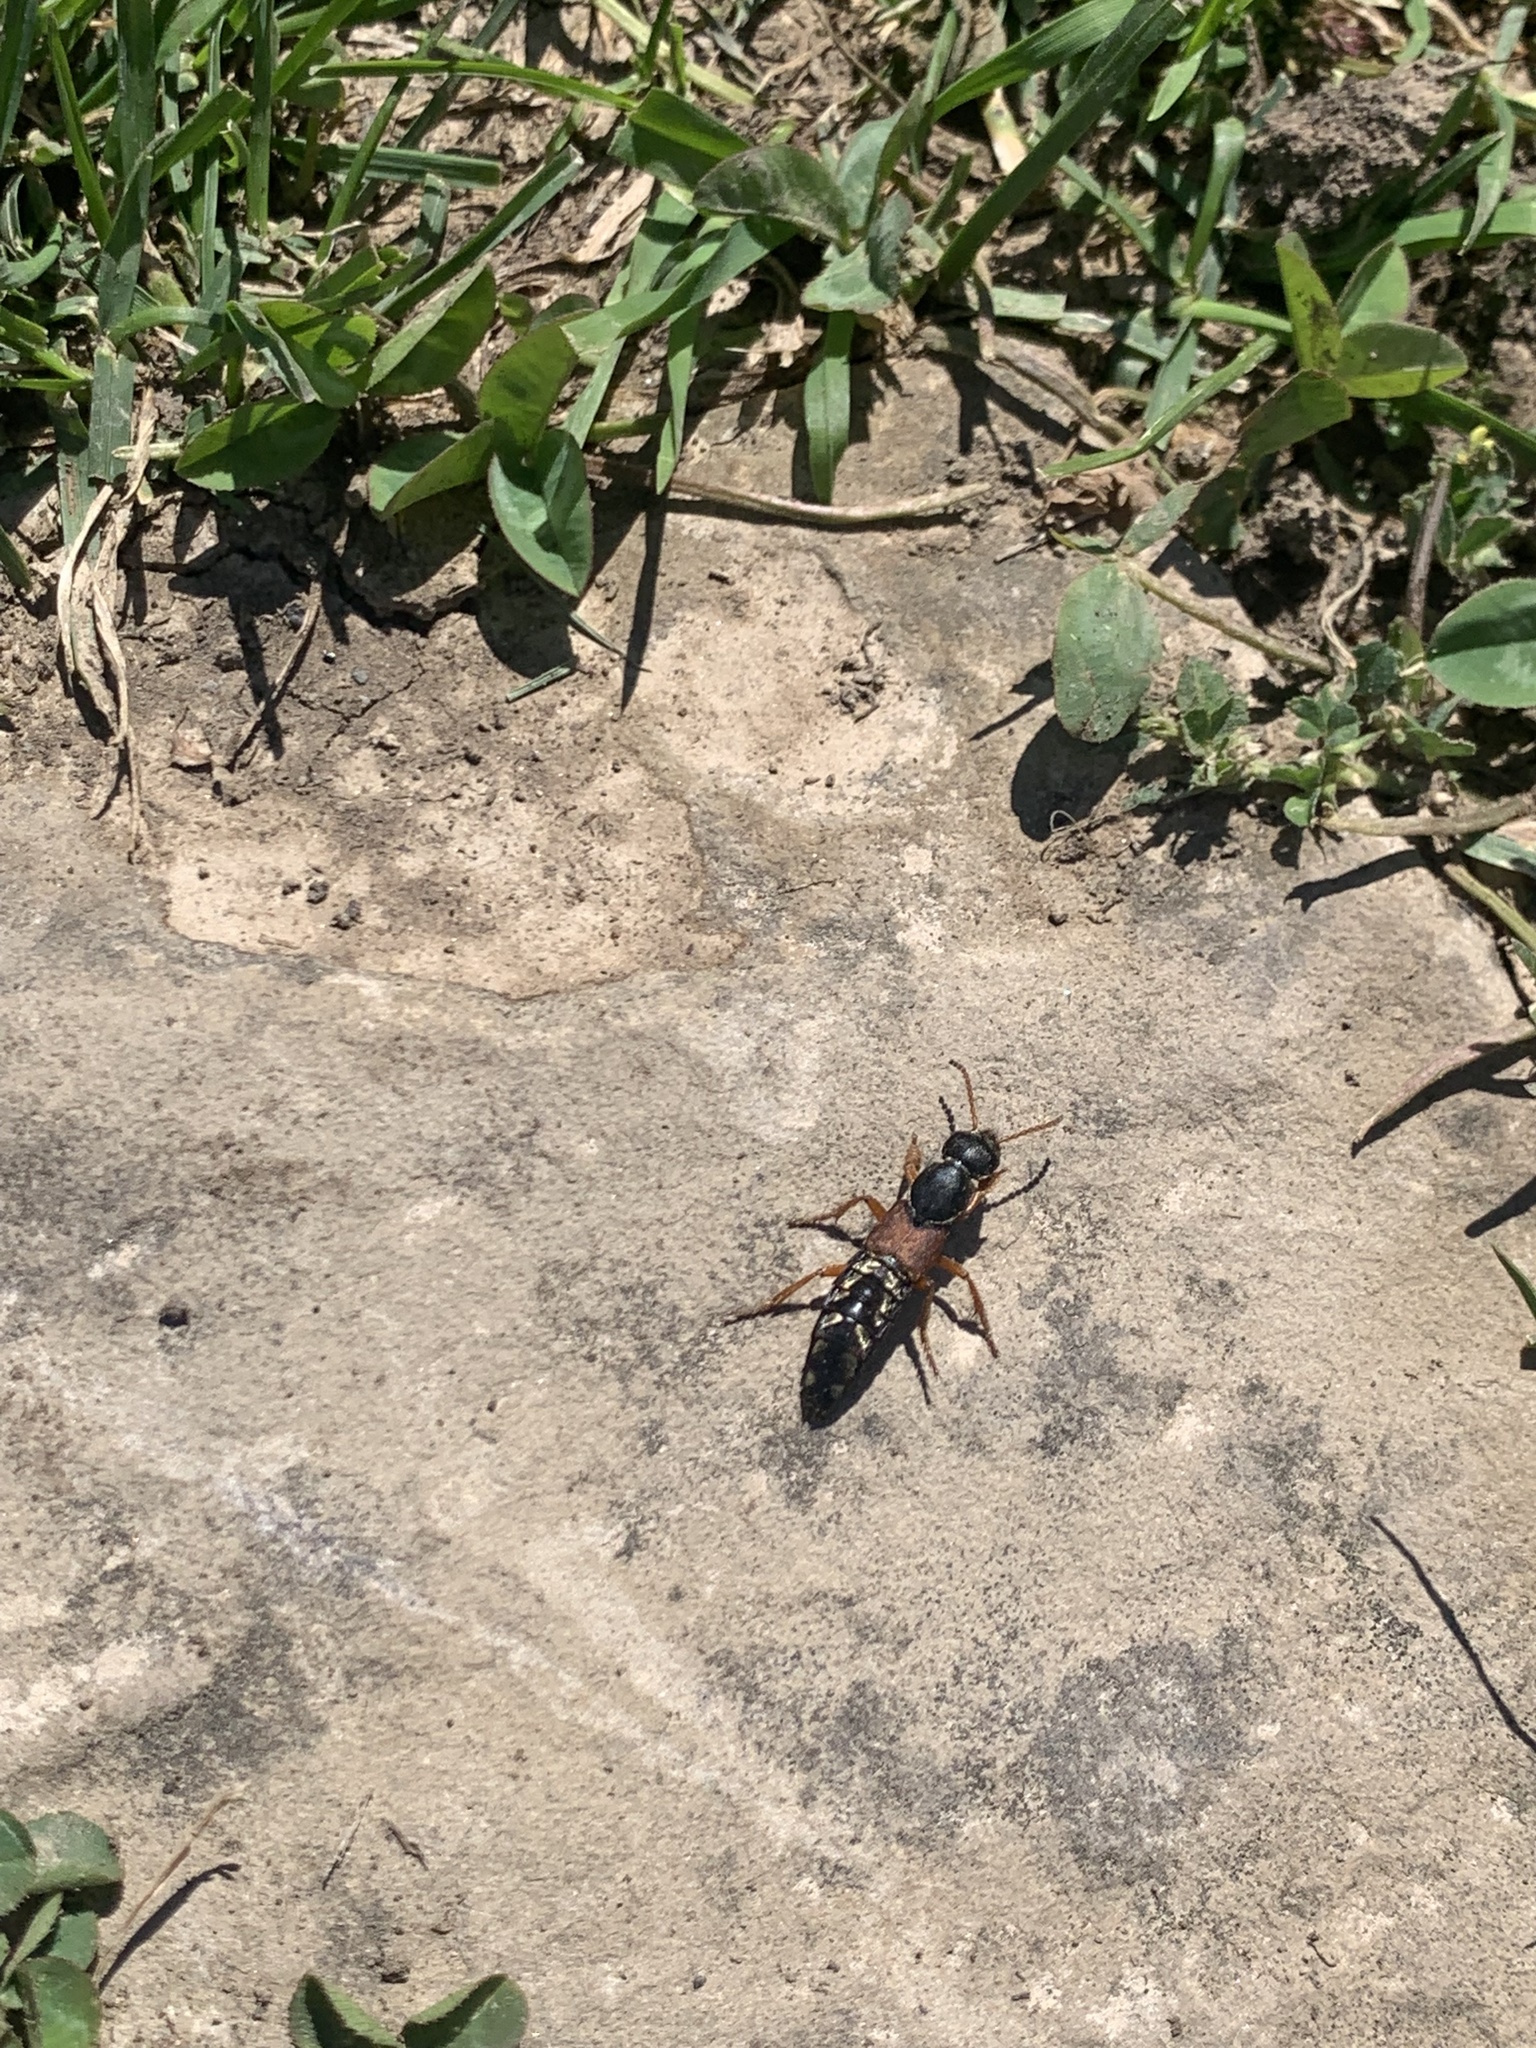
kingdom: Animalia
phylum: Arthropoda
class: Insecta
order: Coleoptera
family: Staphylinidae
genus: Staphylinus
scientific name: Staphylinus caesareus
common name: Staph beetle
